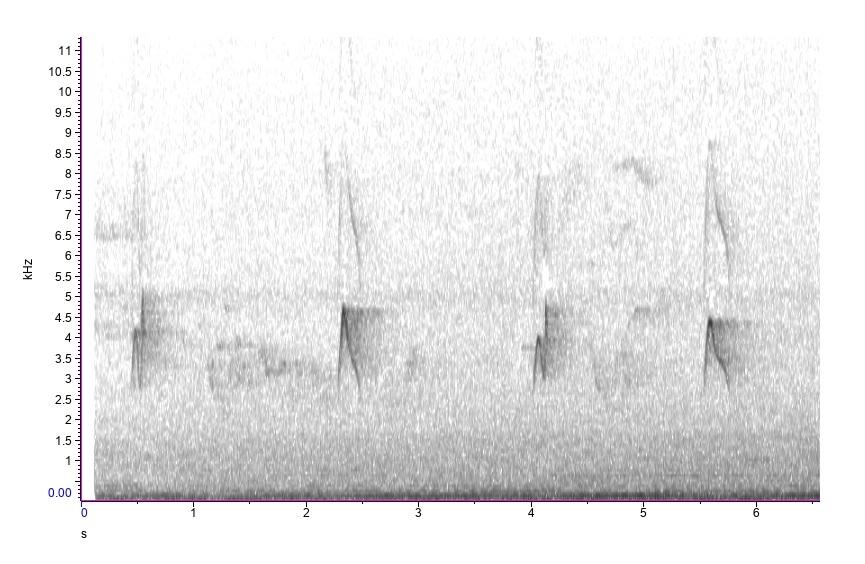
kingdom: Animalia
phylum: Chordata
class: Aves
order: Passeriformes
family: Tyrannidae
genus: Empidonax
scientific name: Empidonax virescens
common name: Acadian flycatcher
